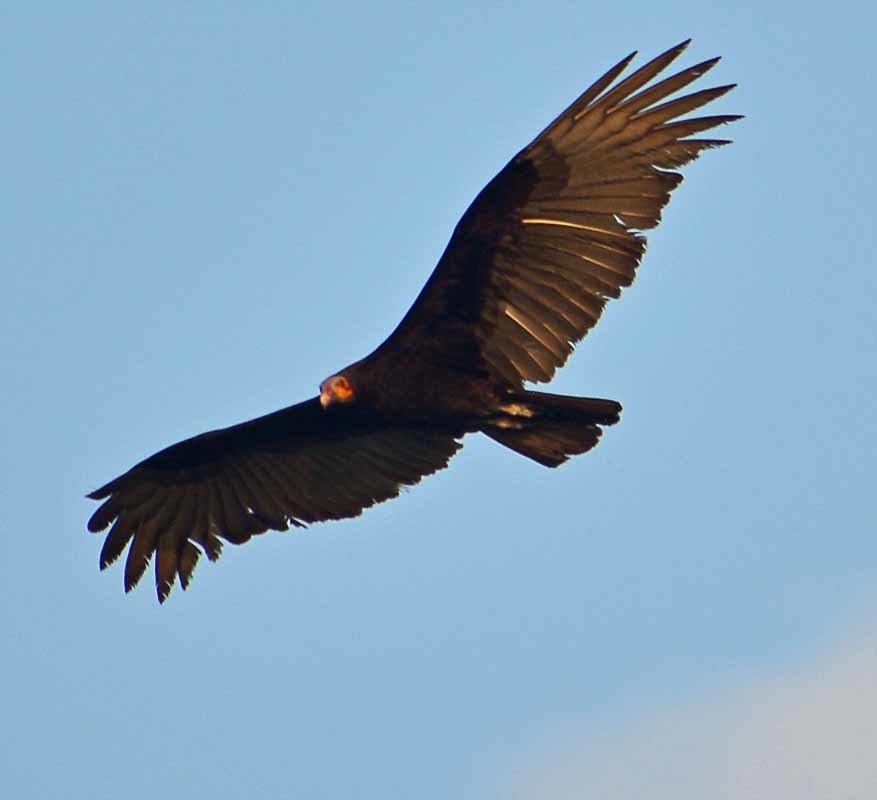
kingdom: Animalia
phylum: Chordata
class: Aves
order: Accipitriformes
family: Cathartidae
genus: Cathartes
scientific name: Cathartes burrovianus
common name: Lesser yellow-headed vulture
